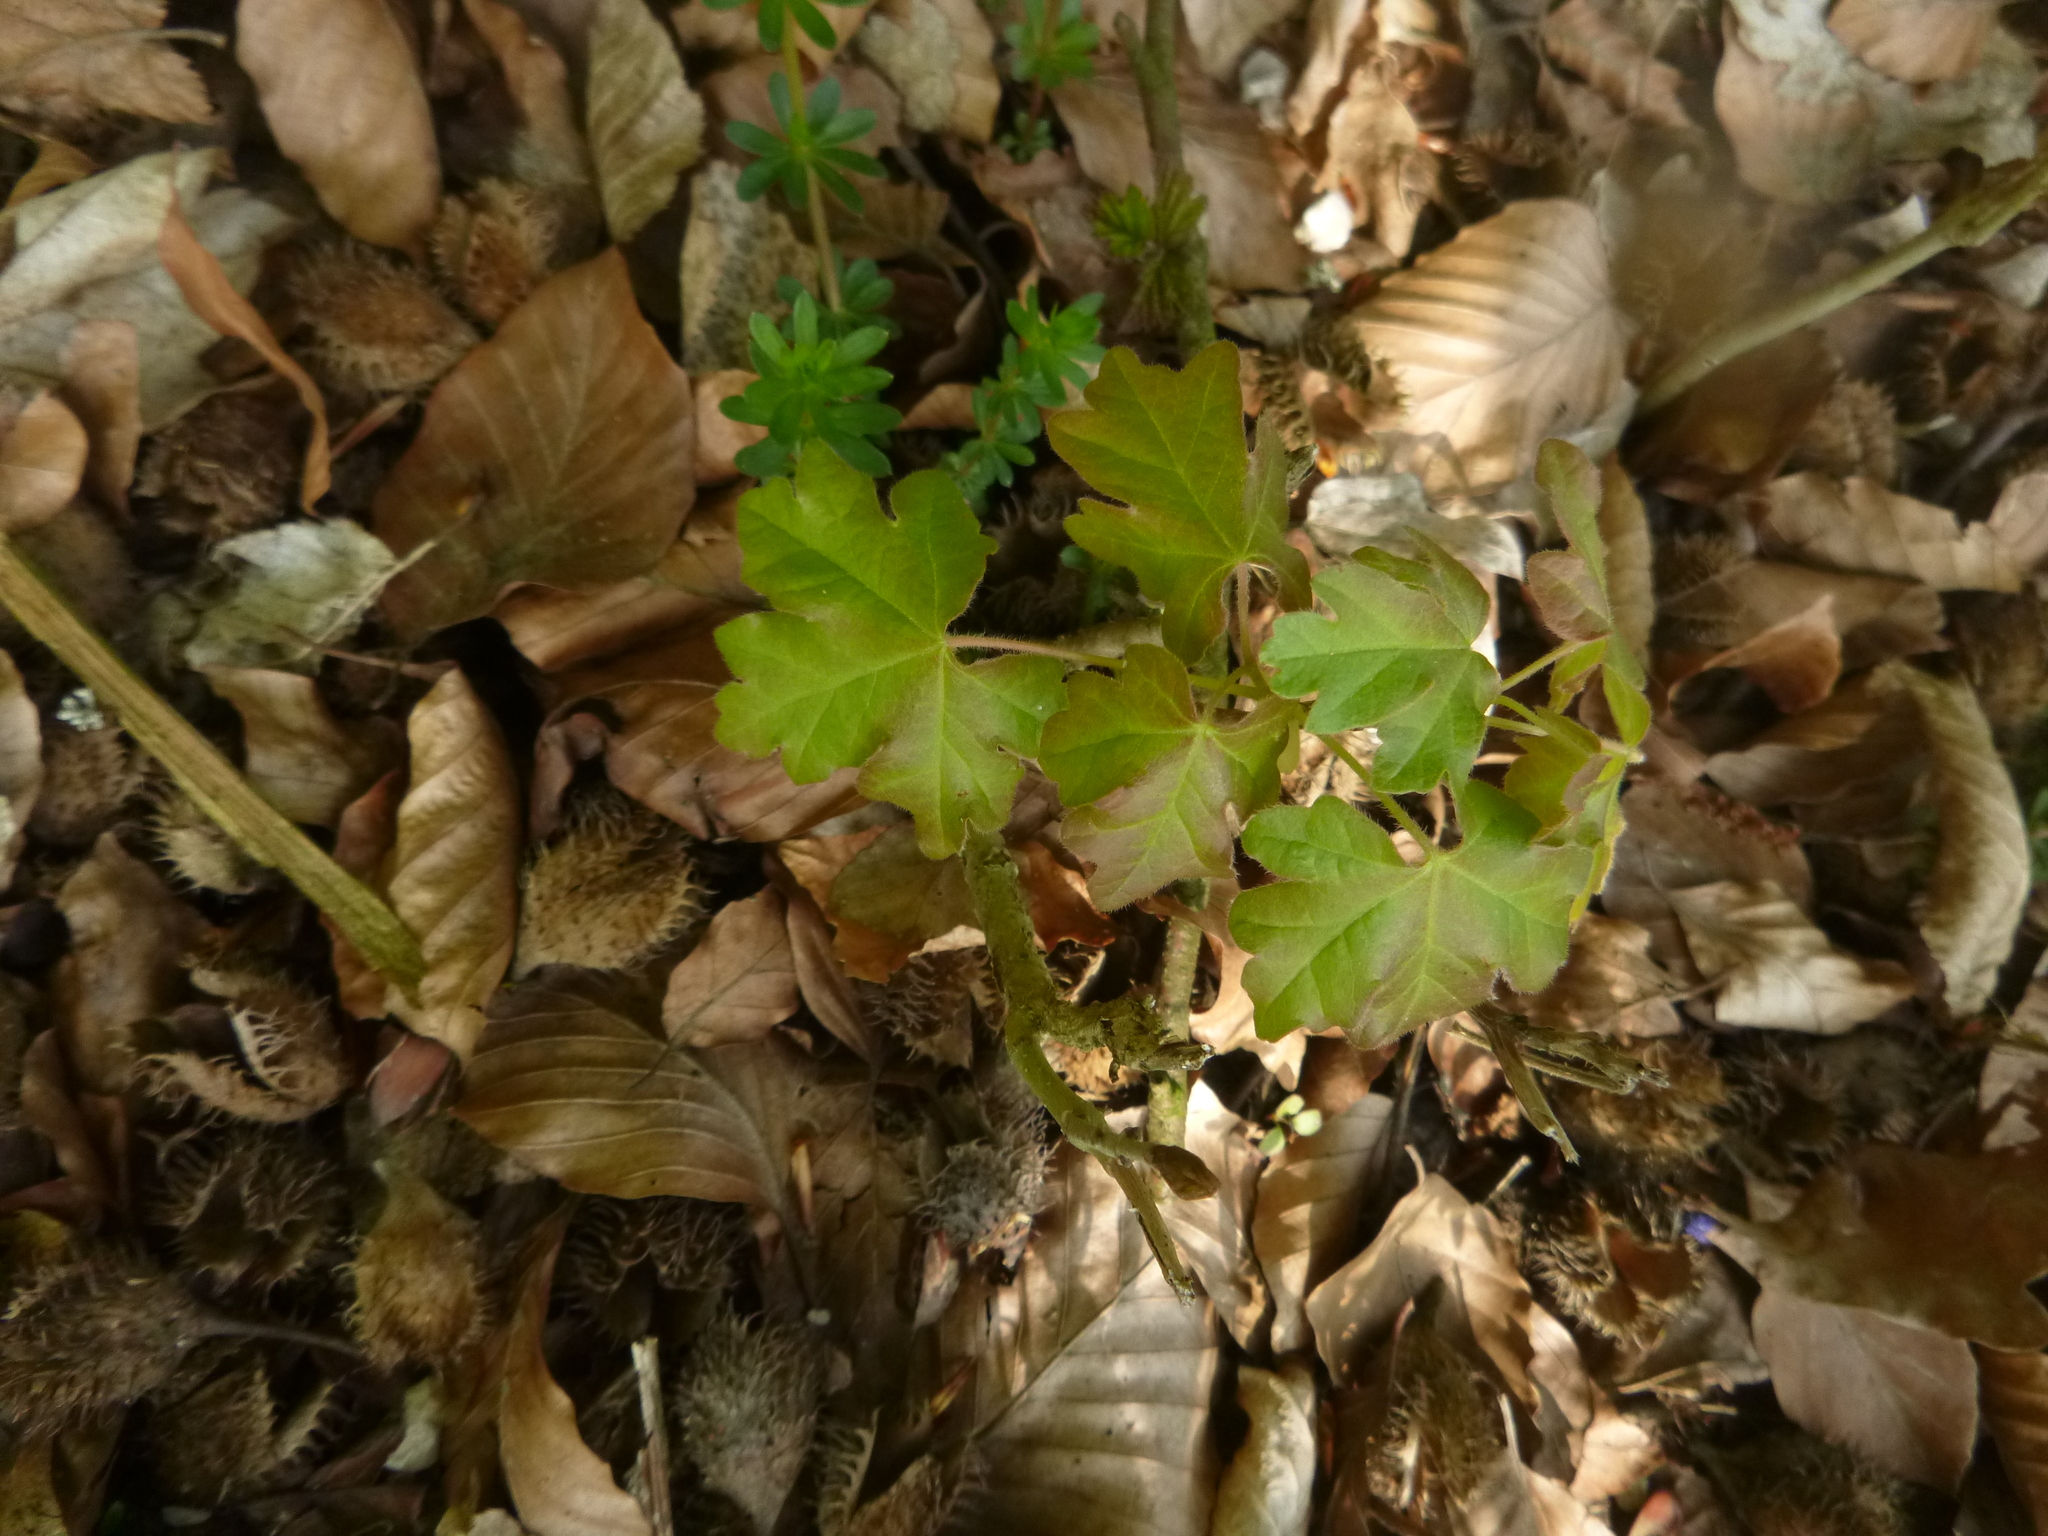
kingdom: Plantae
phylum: Tracheophyta
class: Magnoliopsida
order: Sapindales
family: Sapindaceae
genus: Acer
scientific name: Acer campestre
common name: Field maple
